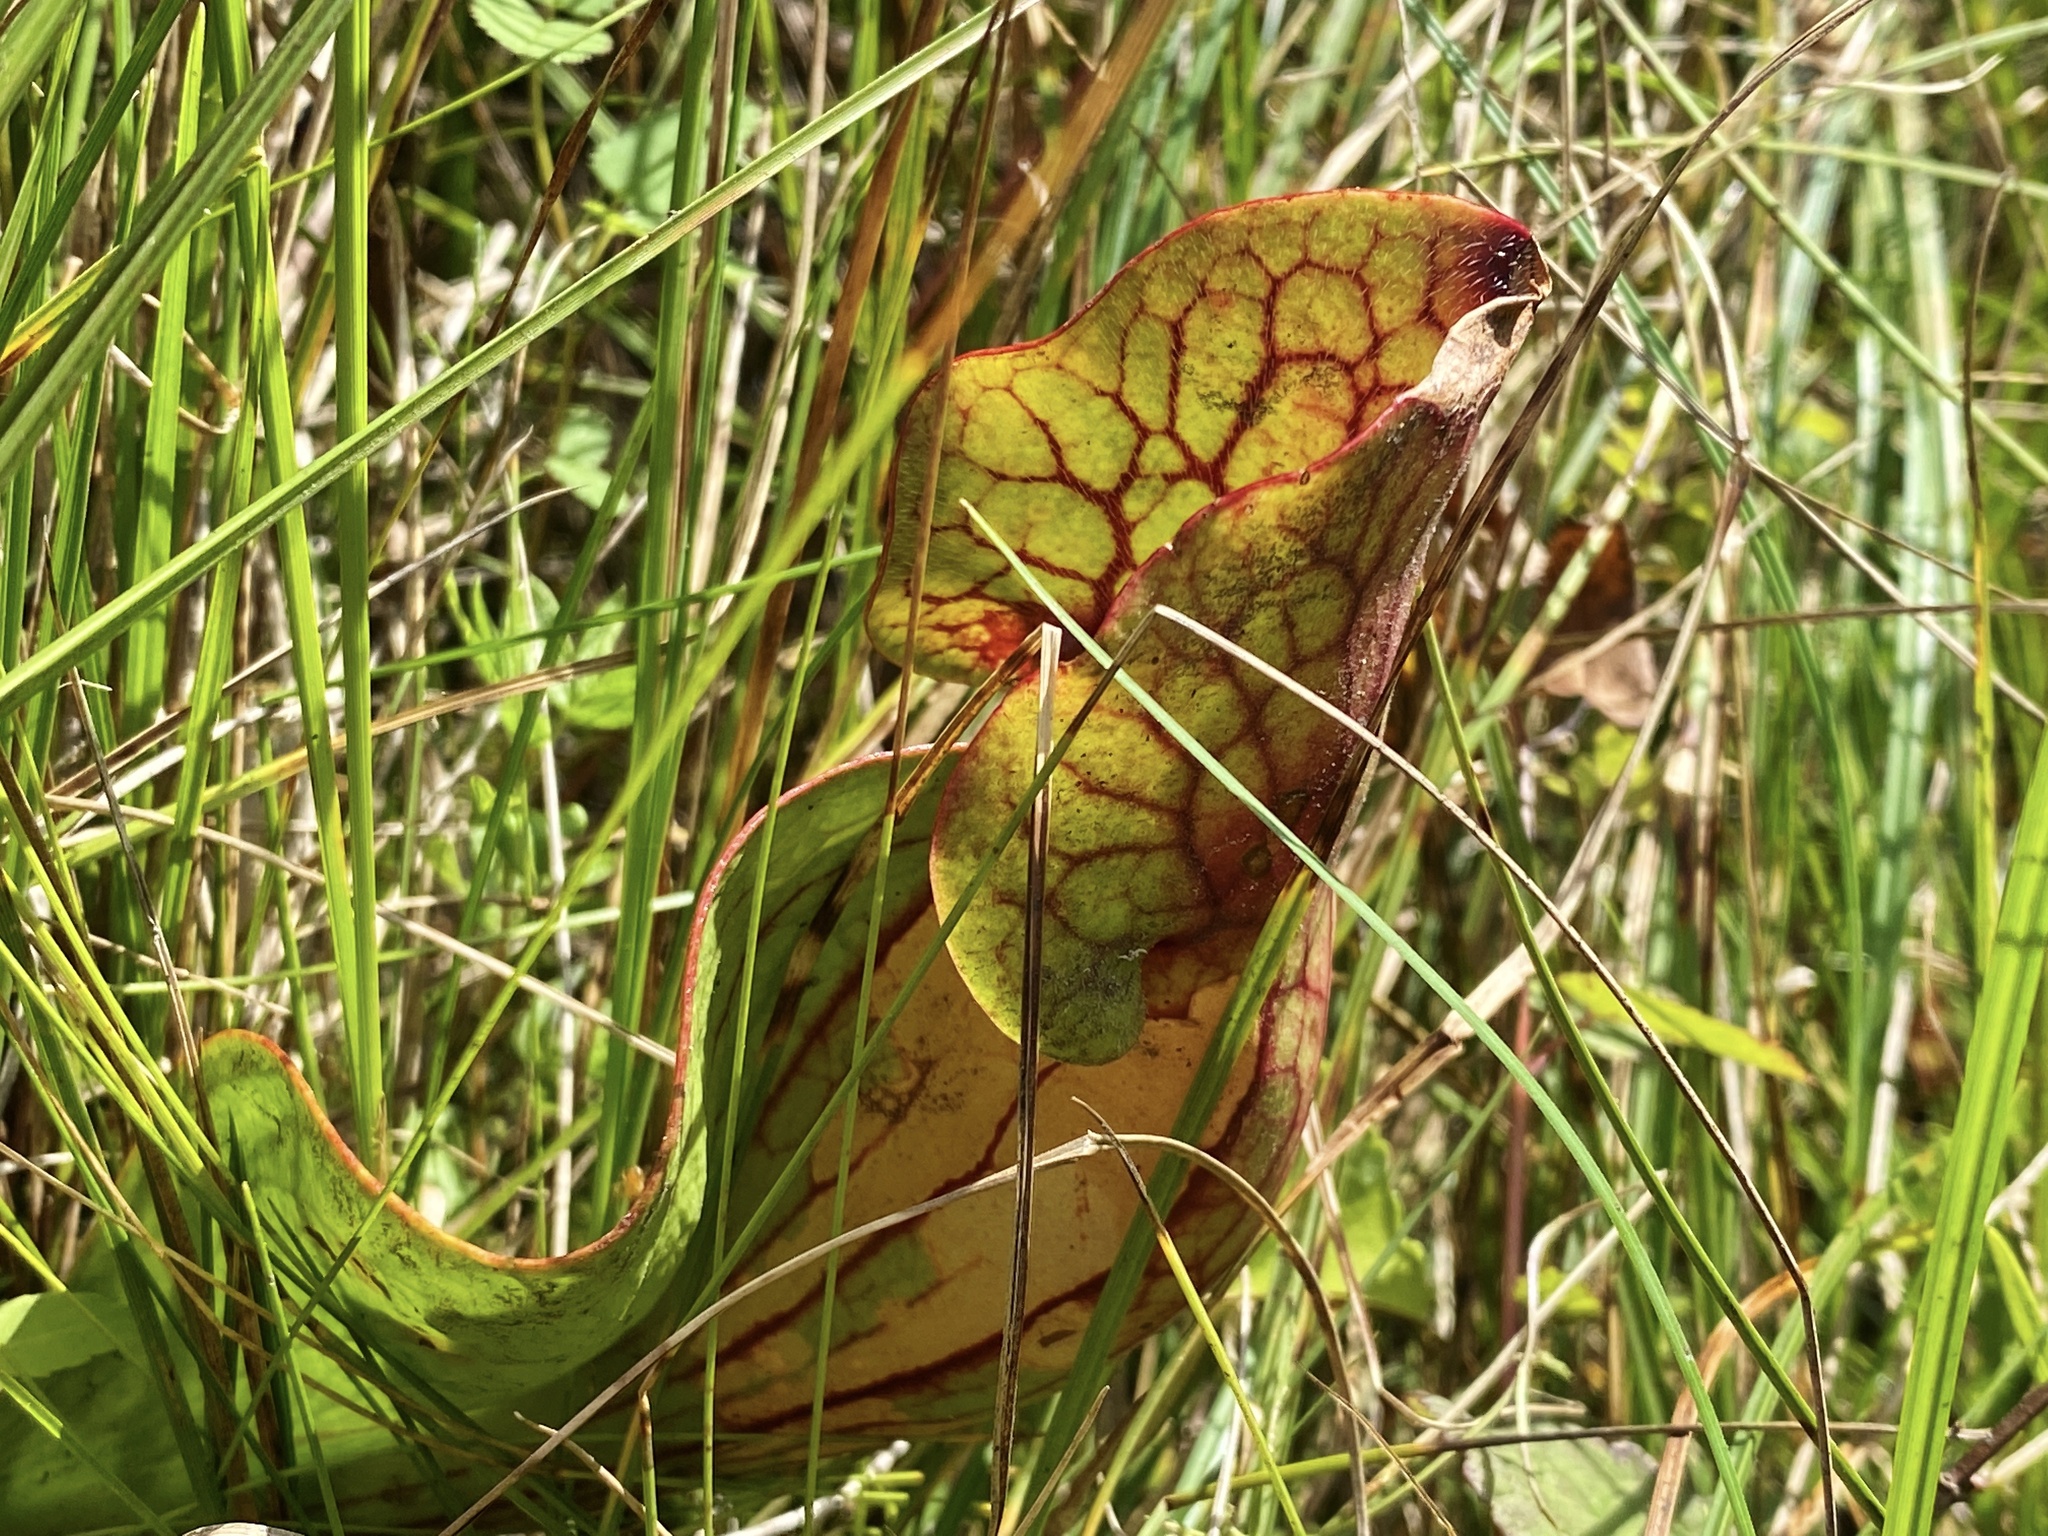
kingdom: Plantae
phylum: Tracheophyta
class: Magnoliopsida
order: Ericales
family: Sarraceniaceae
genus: Sarracenia
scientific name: Sarracenia purpurea
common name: Pitcherplant
